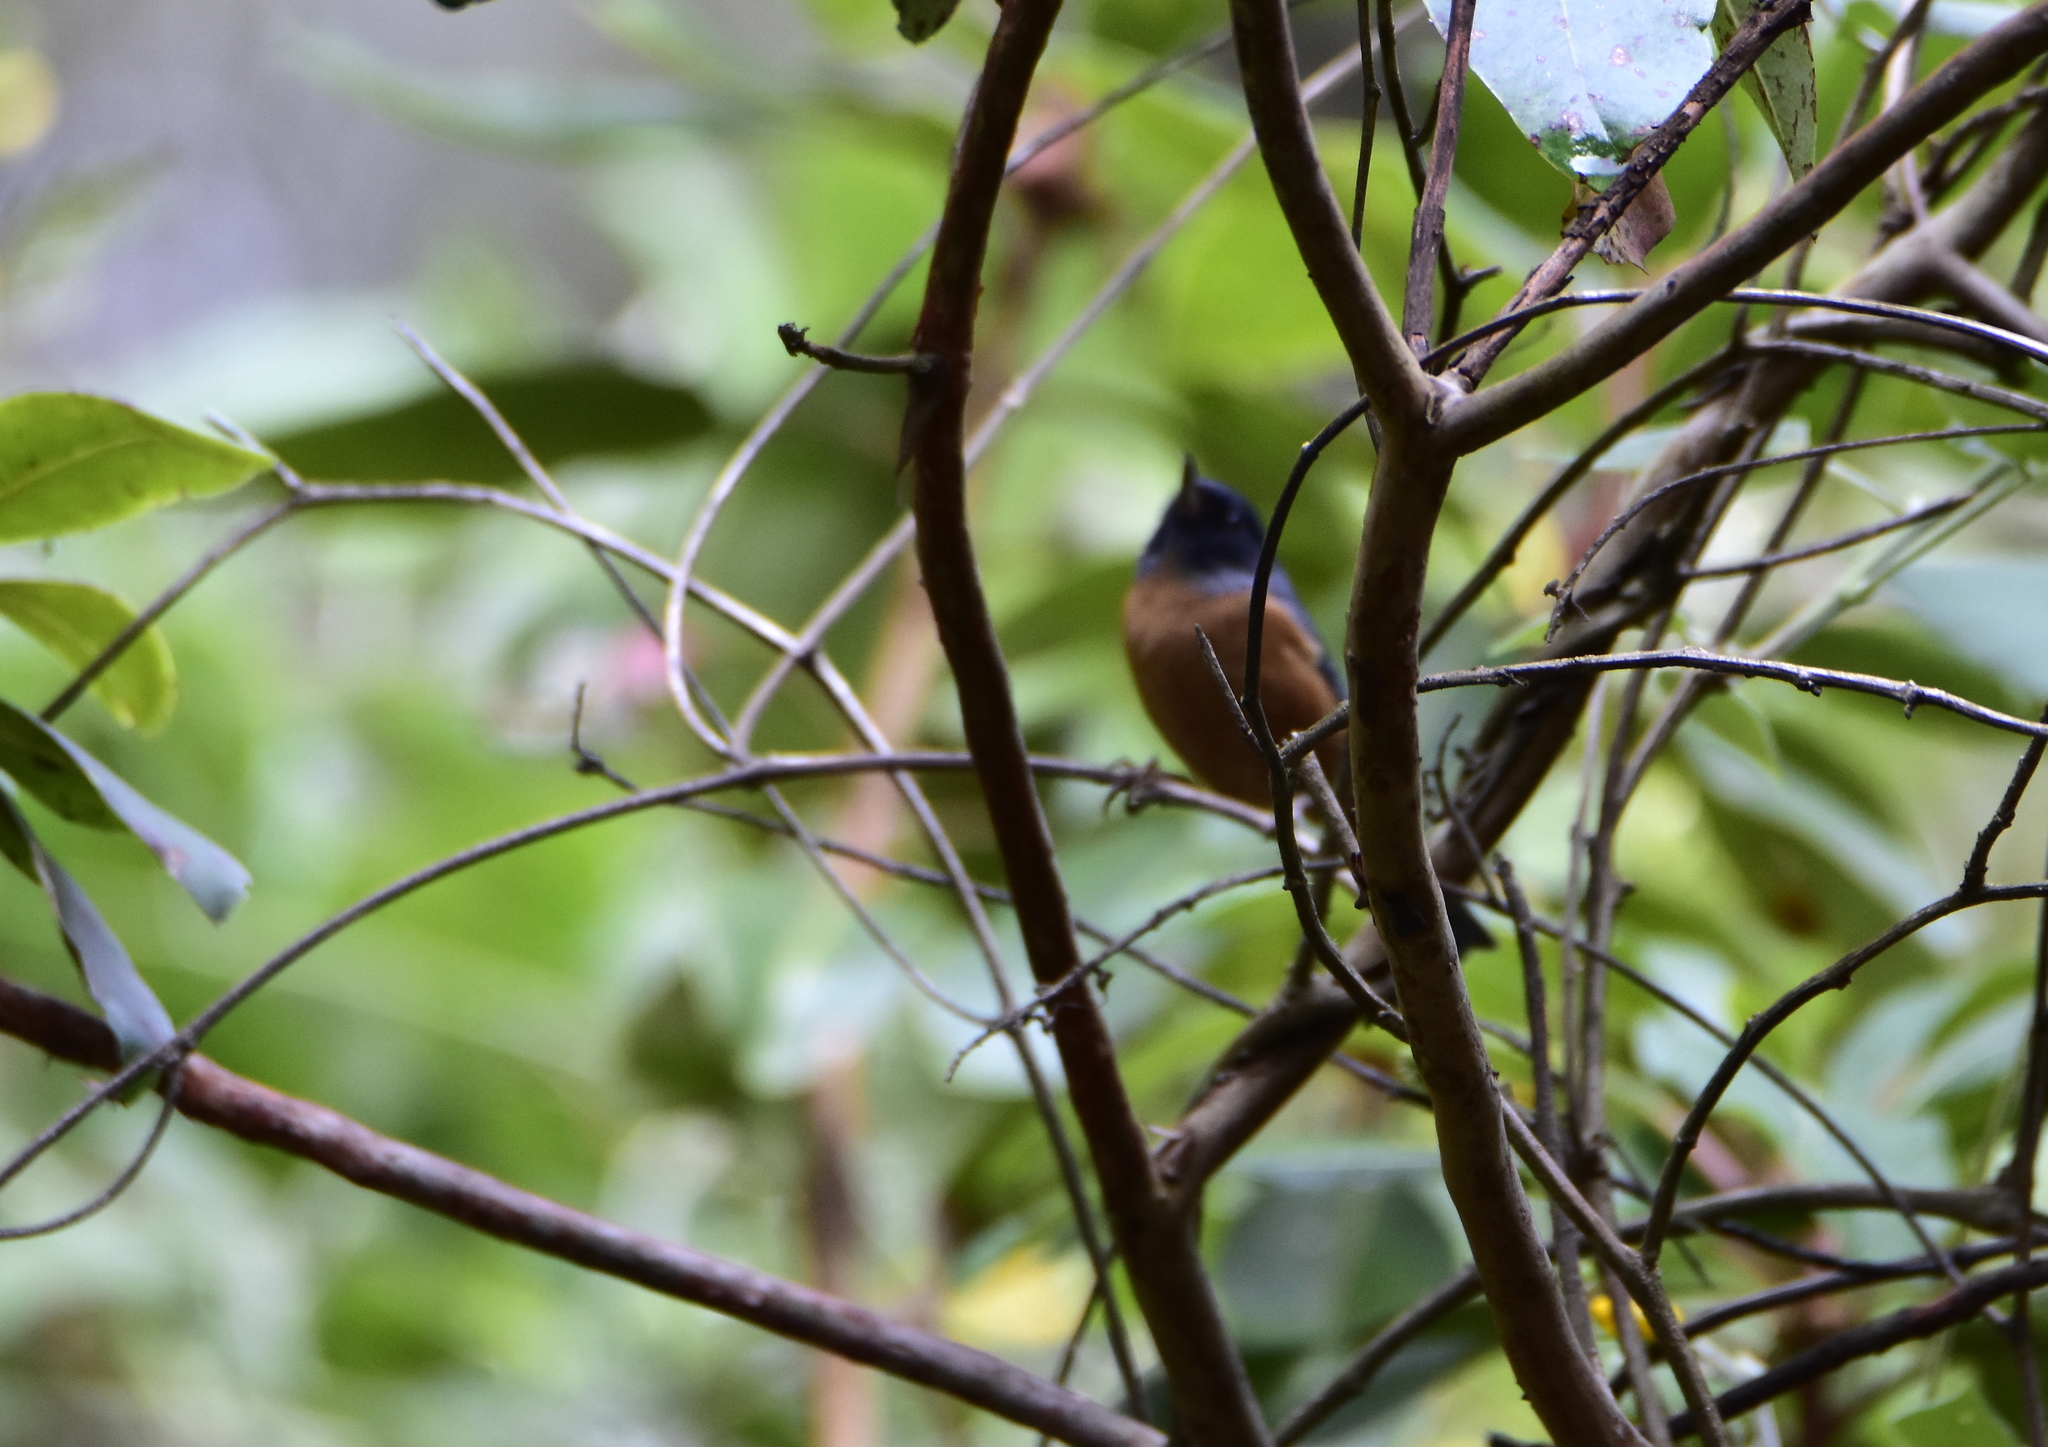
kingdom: Animalia
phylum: Chordata
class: Aves
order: Passeriformes
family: Thraupidae
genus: Diglossa
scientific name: Diglossa baritula
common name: Cinnamon-bellied flowerpiercer
